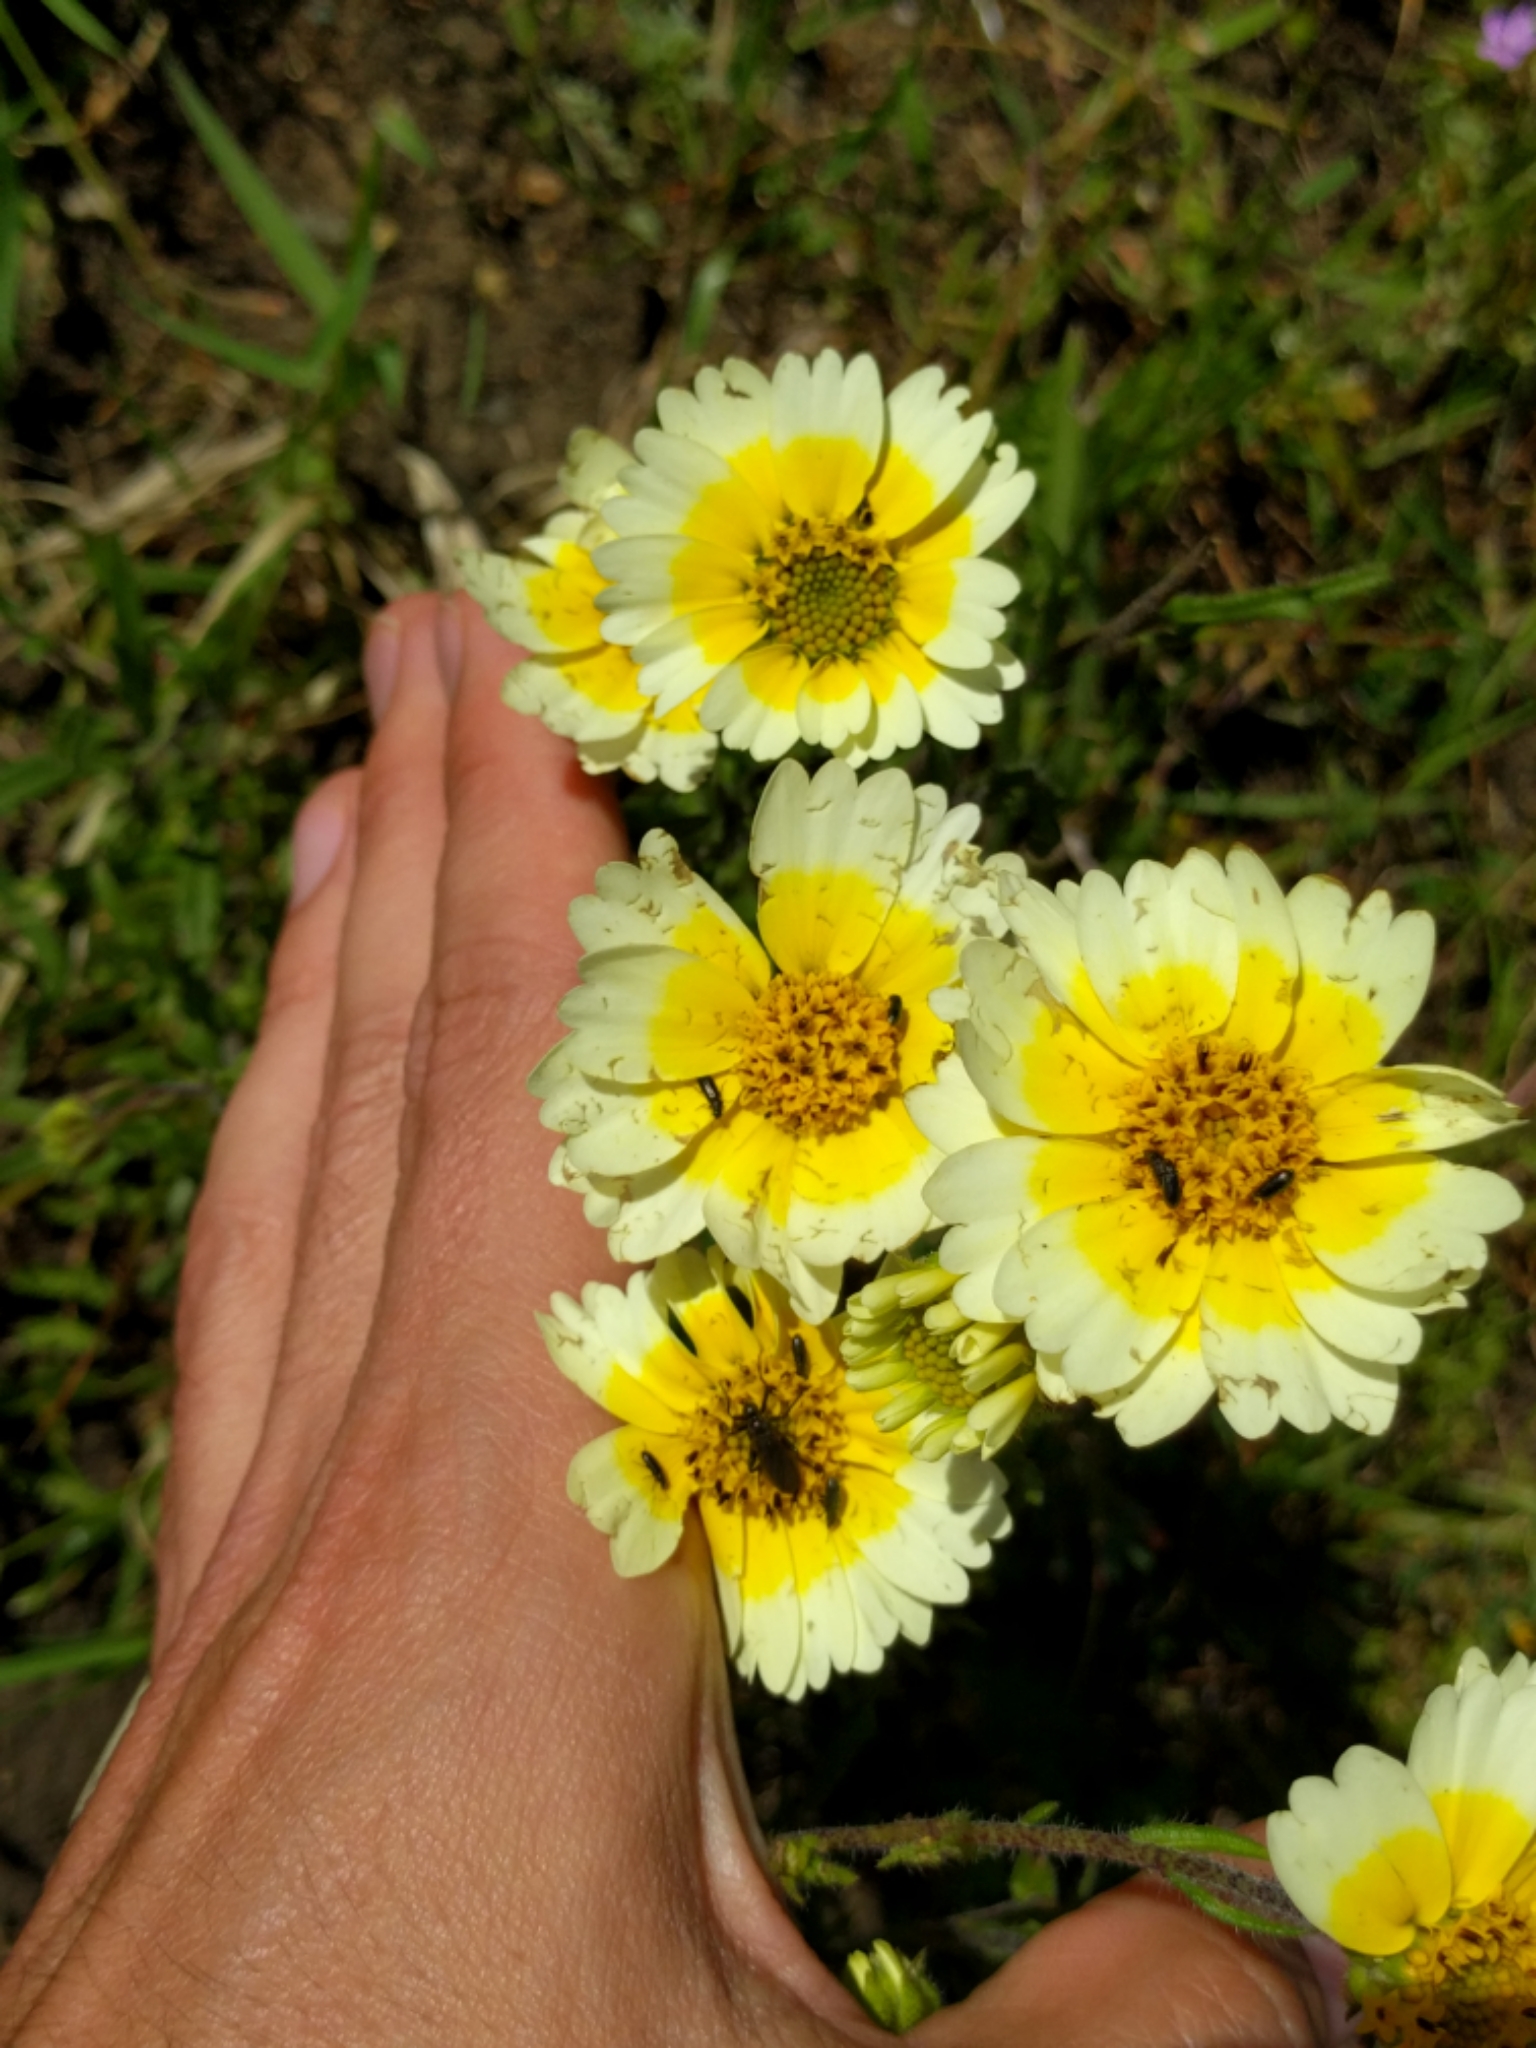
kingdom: Plantae
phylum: Tracheophyta
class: Magnoliopsida
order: Asterales
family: Asteraceae
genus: Layia
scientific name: Layia gaillardioides
